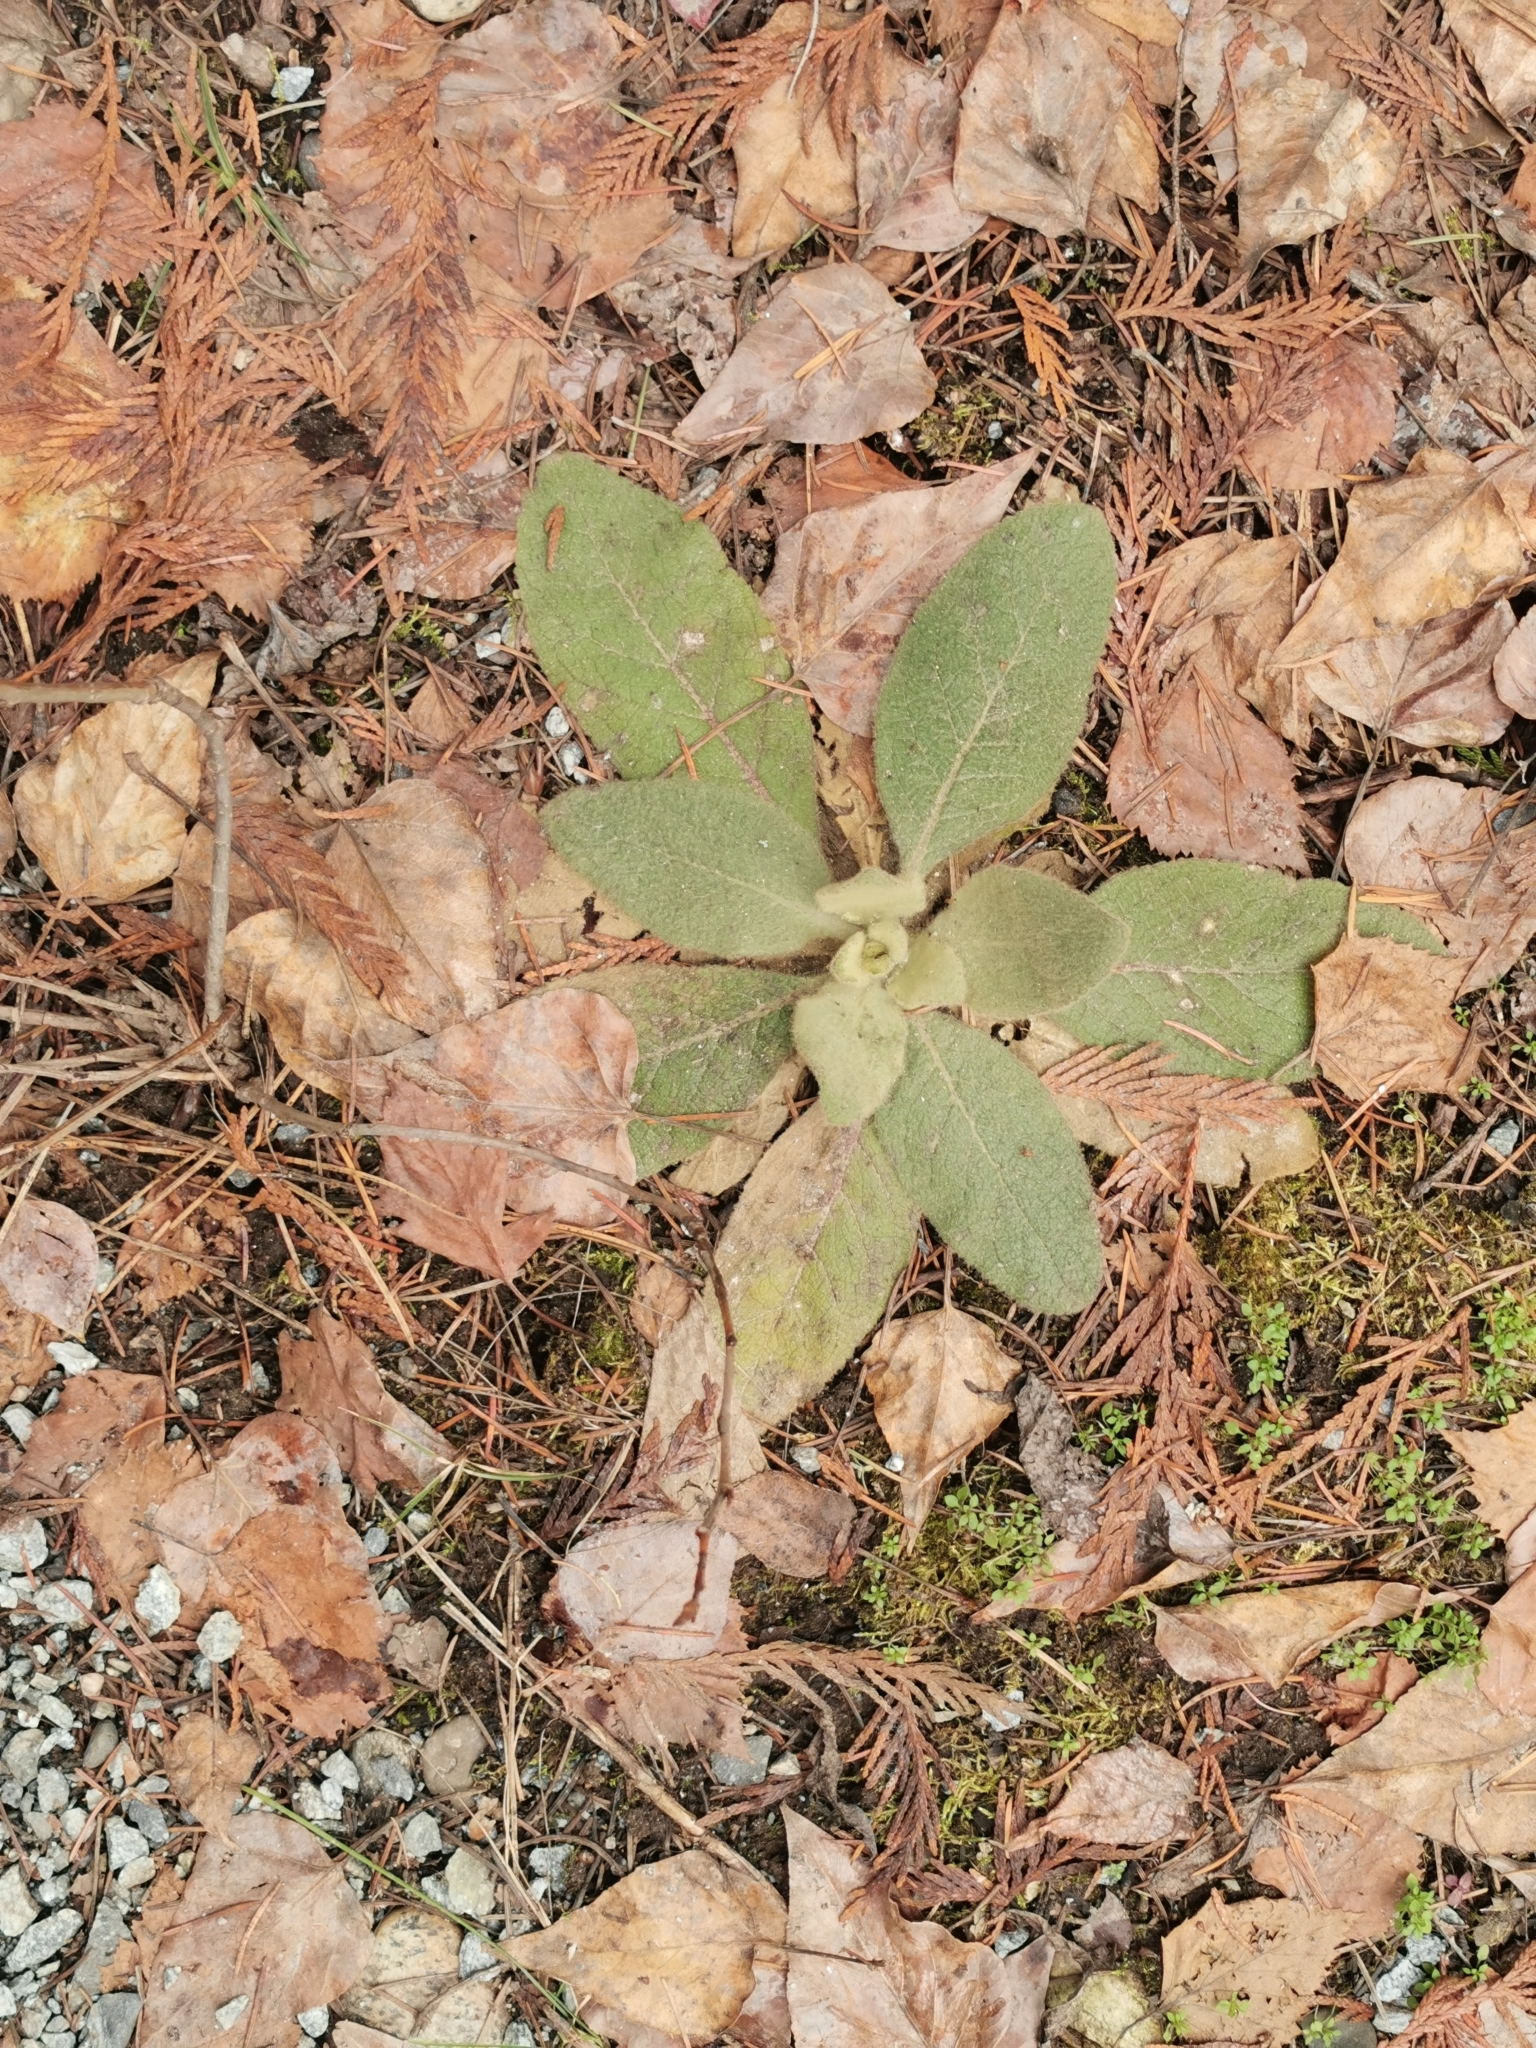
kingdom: Plantae
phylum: Tracheophyta
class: Magnoliopsida
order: Lamiales
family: Scrophulariaceae
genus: Verbascum
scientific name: Verbascum thapsus
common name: Common mullein
